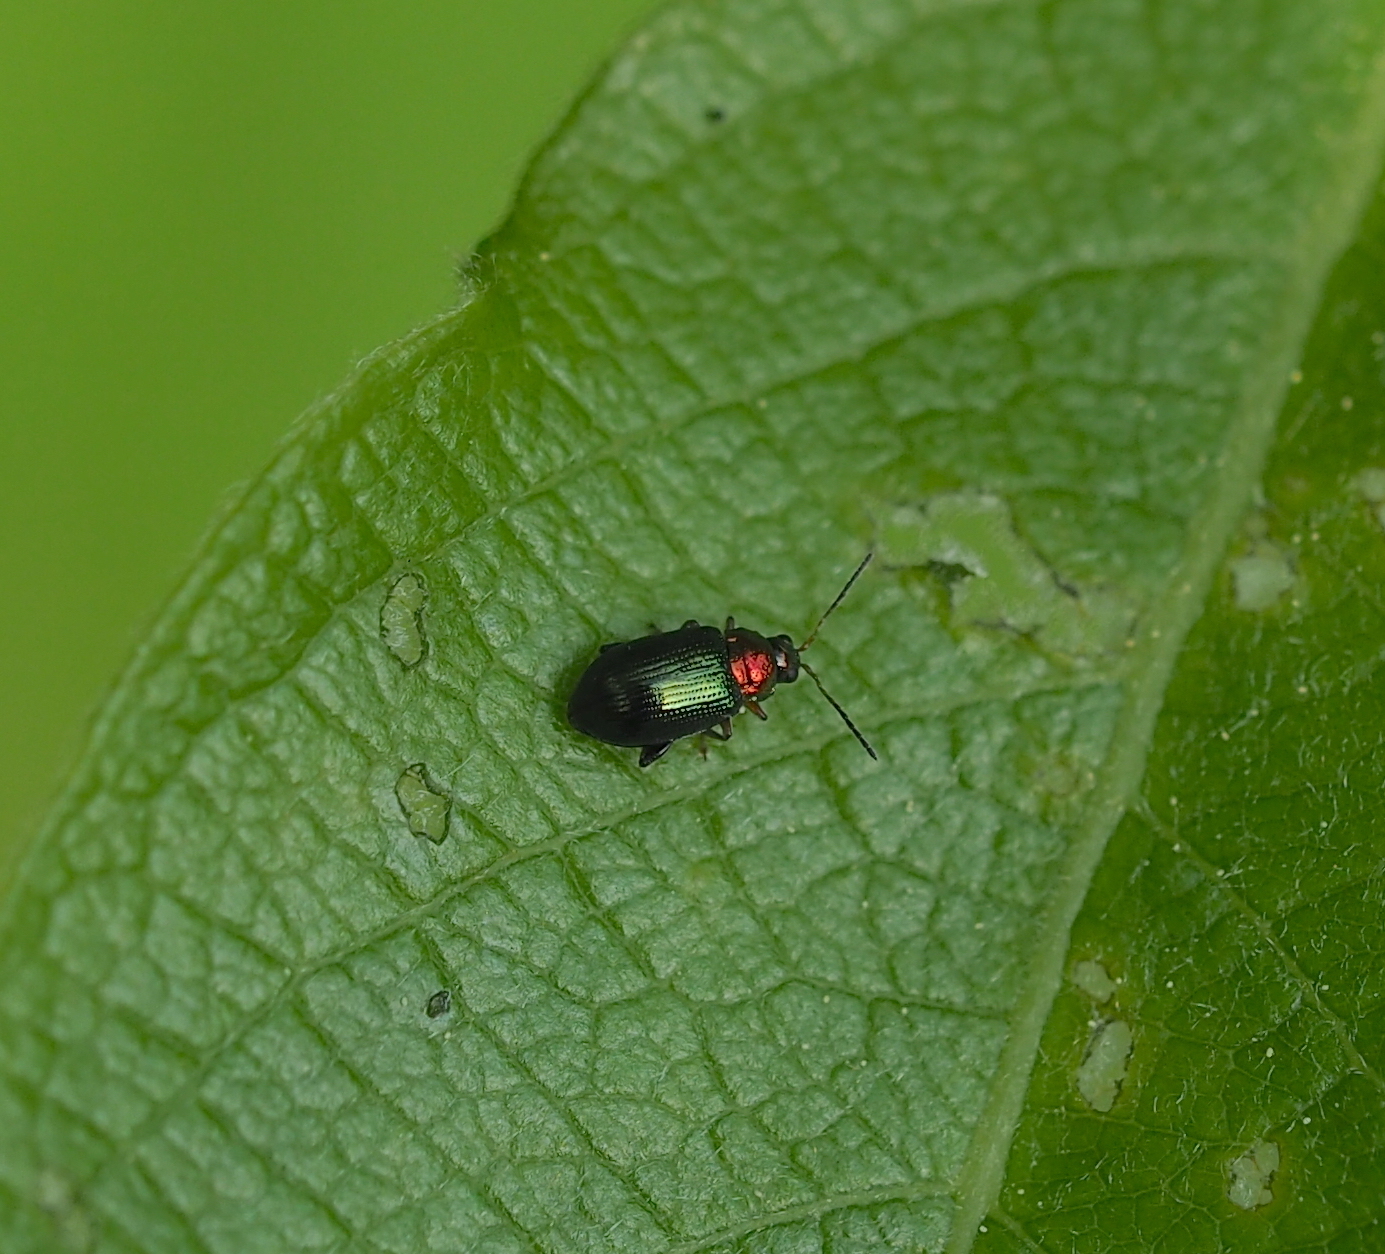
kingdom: Animalia
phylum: Arthropoda
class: Insecta
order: Coleoptera
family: Chrysomelidae
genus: Crepidodera
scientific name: Crepidodera aurata
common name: Willow flea beetle
